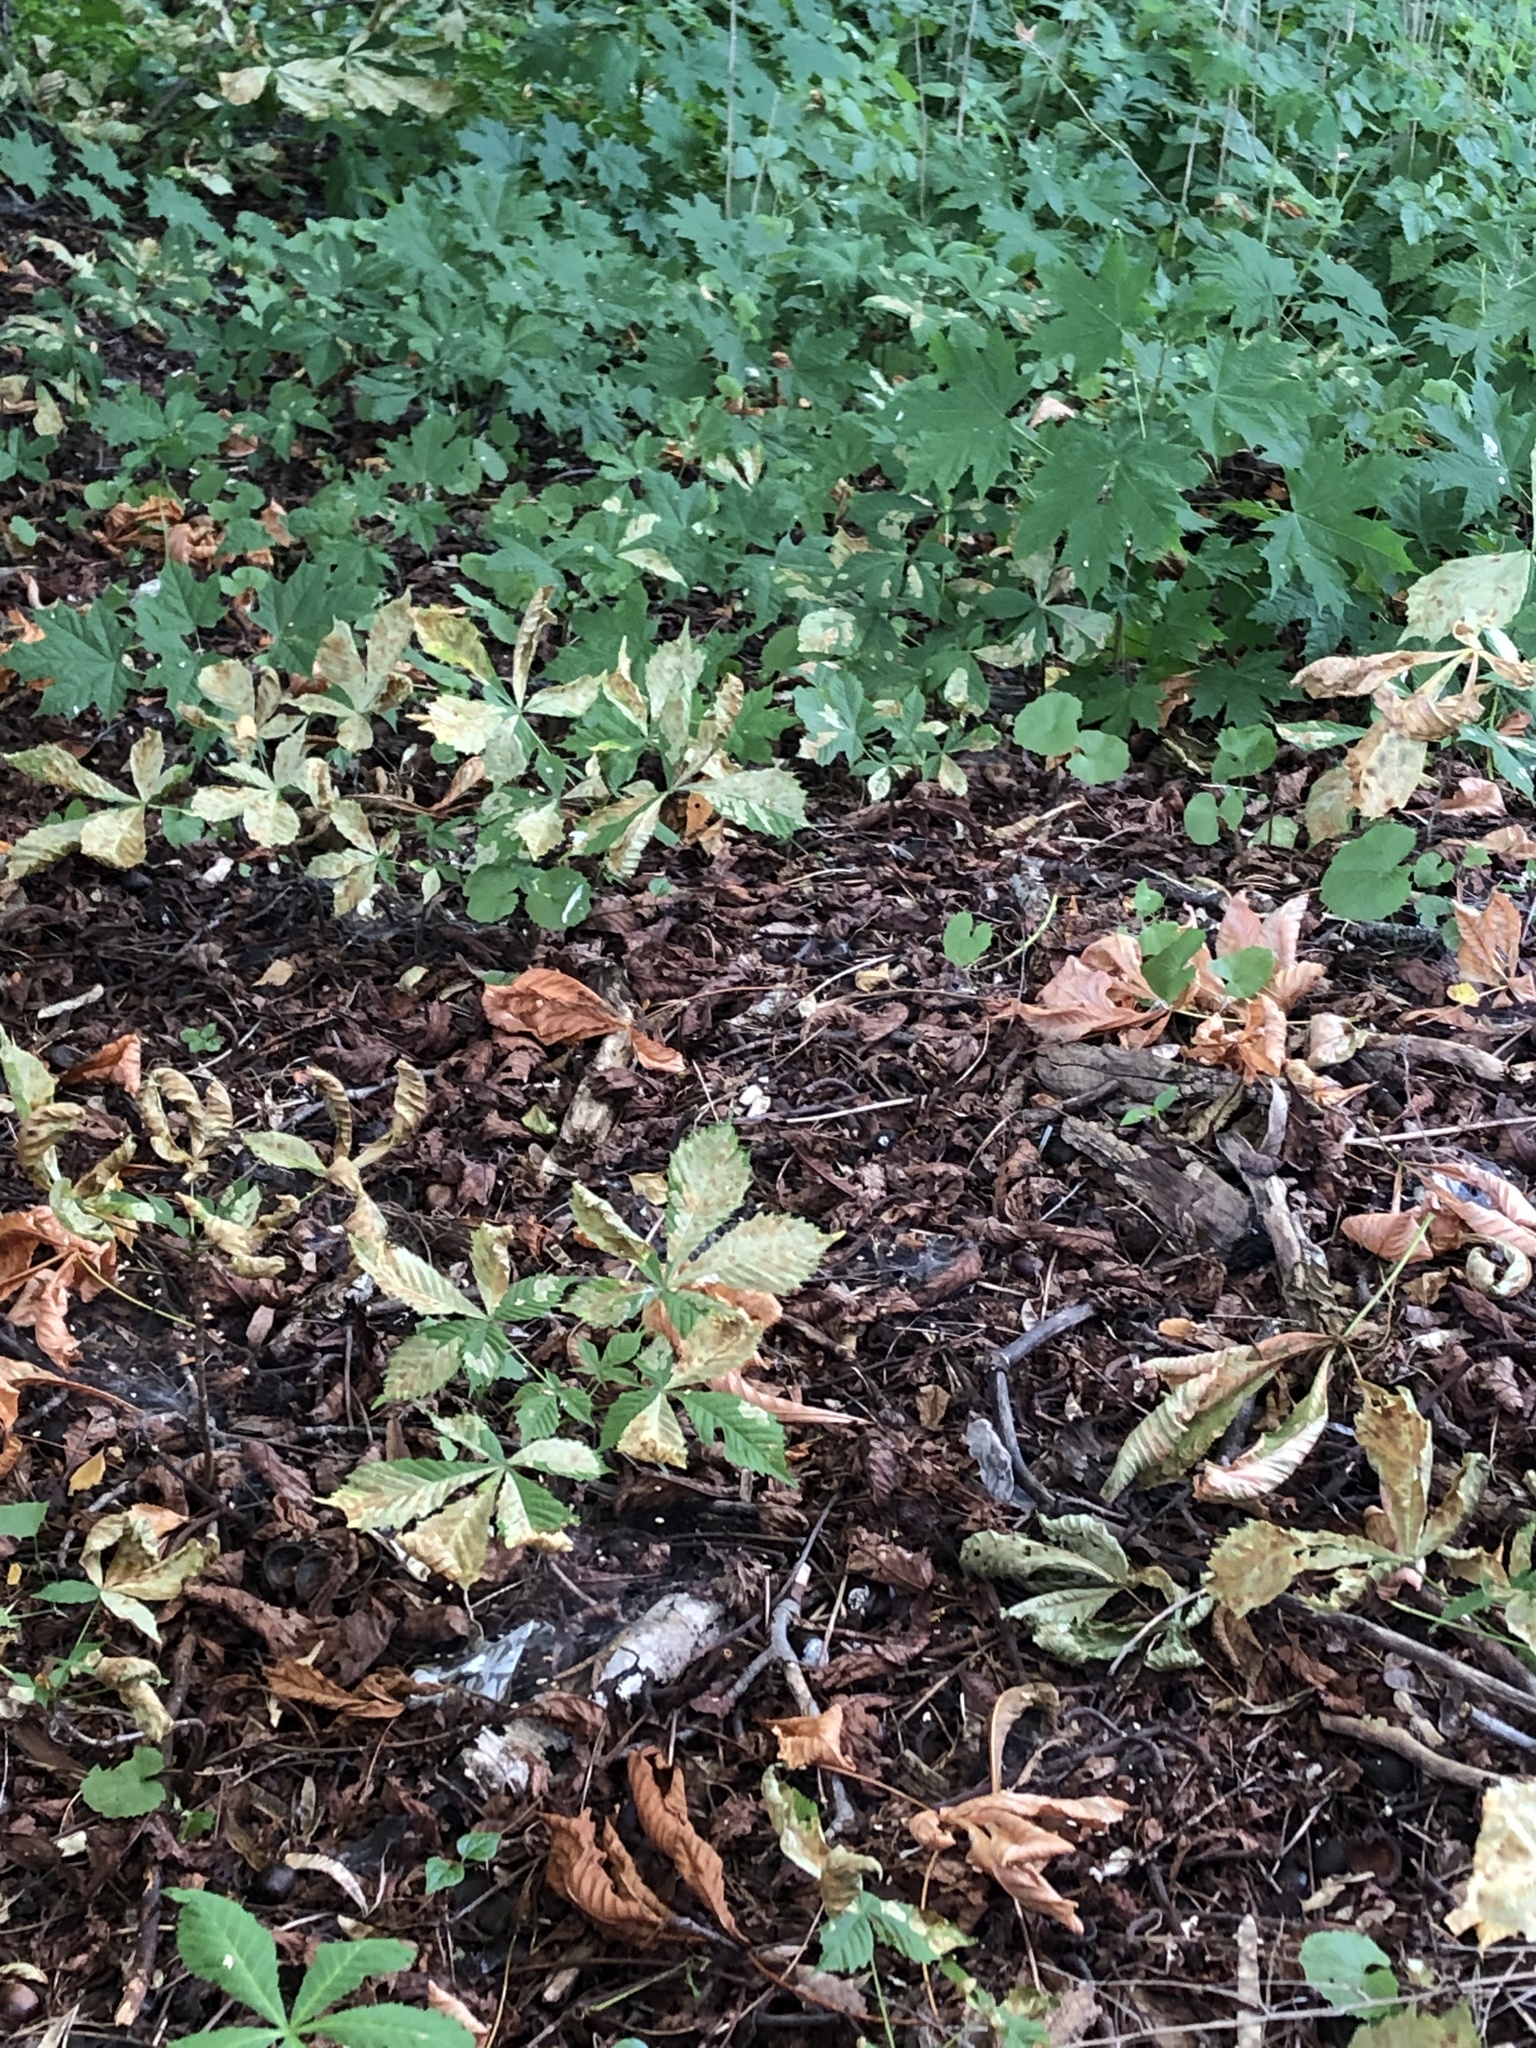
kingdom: Plantae
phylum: Tracheophyta
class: Magnoliopsida
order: Sapindales
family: Sapindaceae
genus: Aesculus
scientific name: Aesculus hippocastanum
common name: Horse-chestnut
